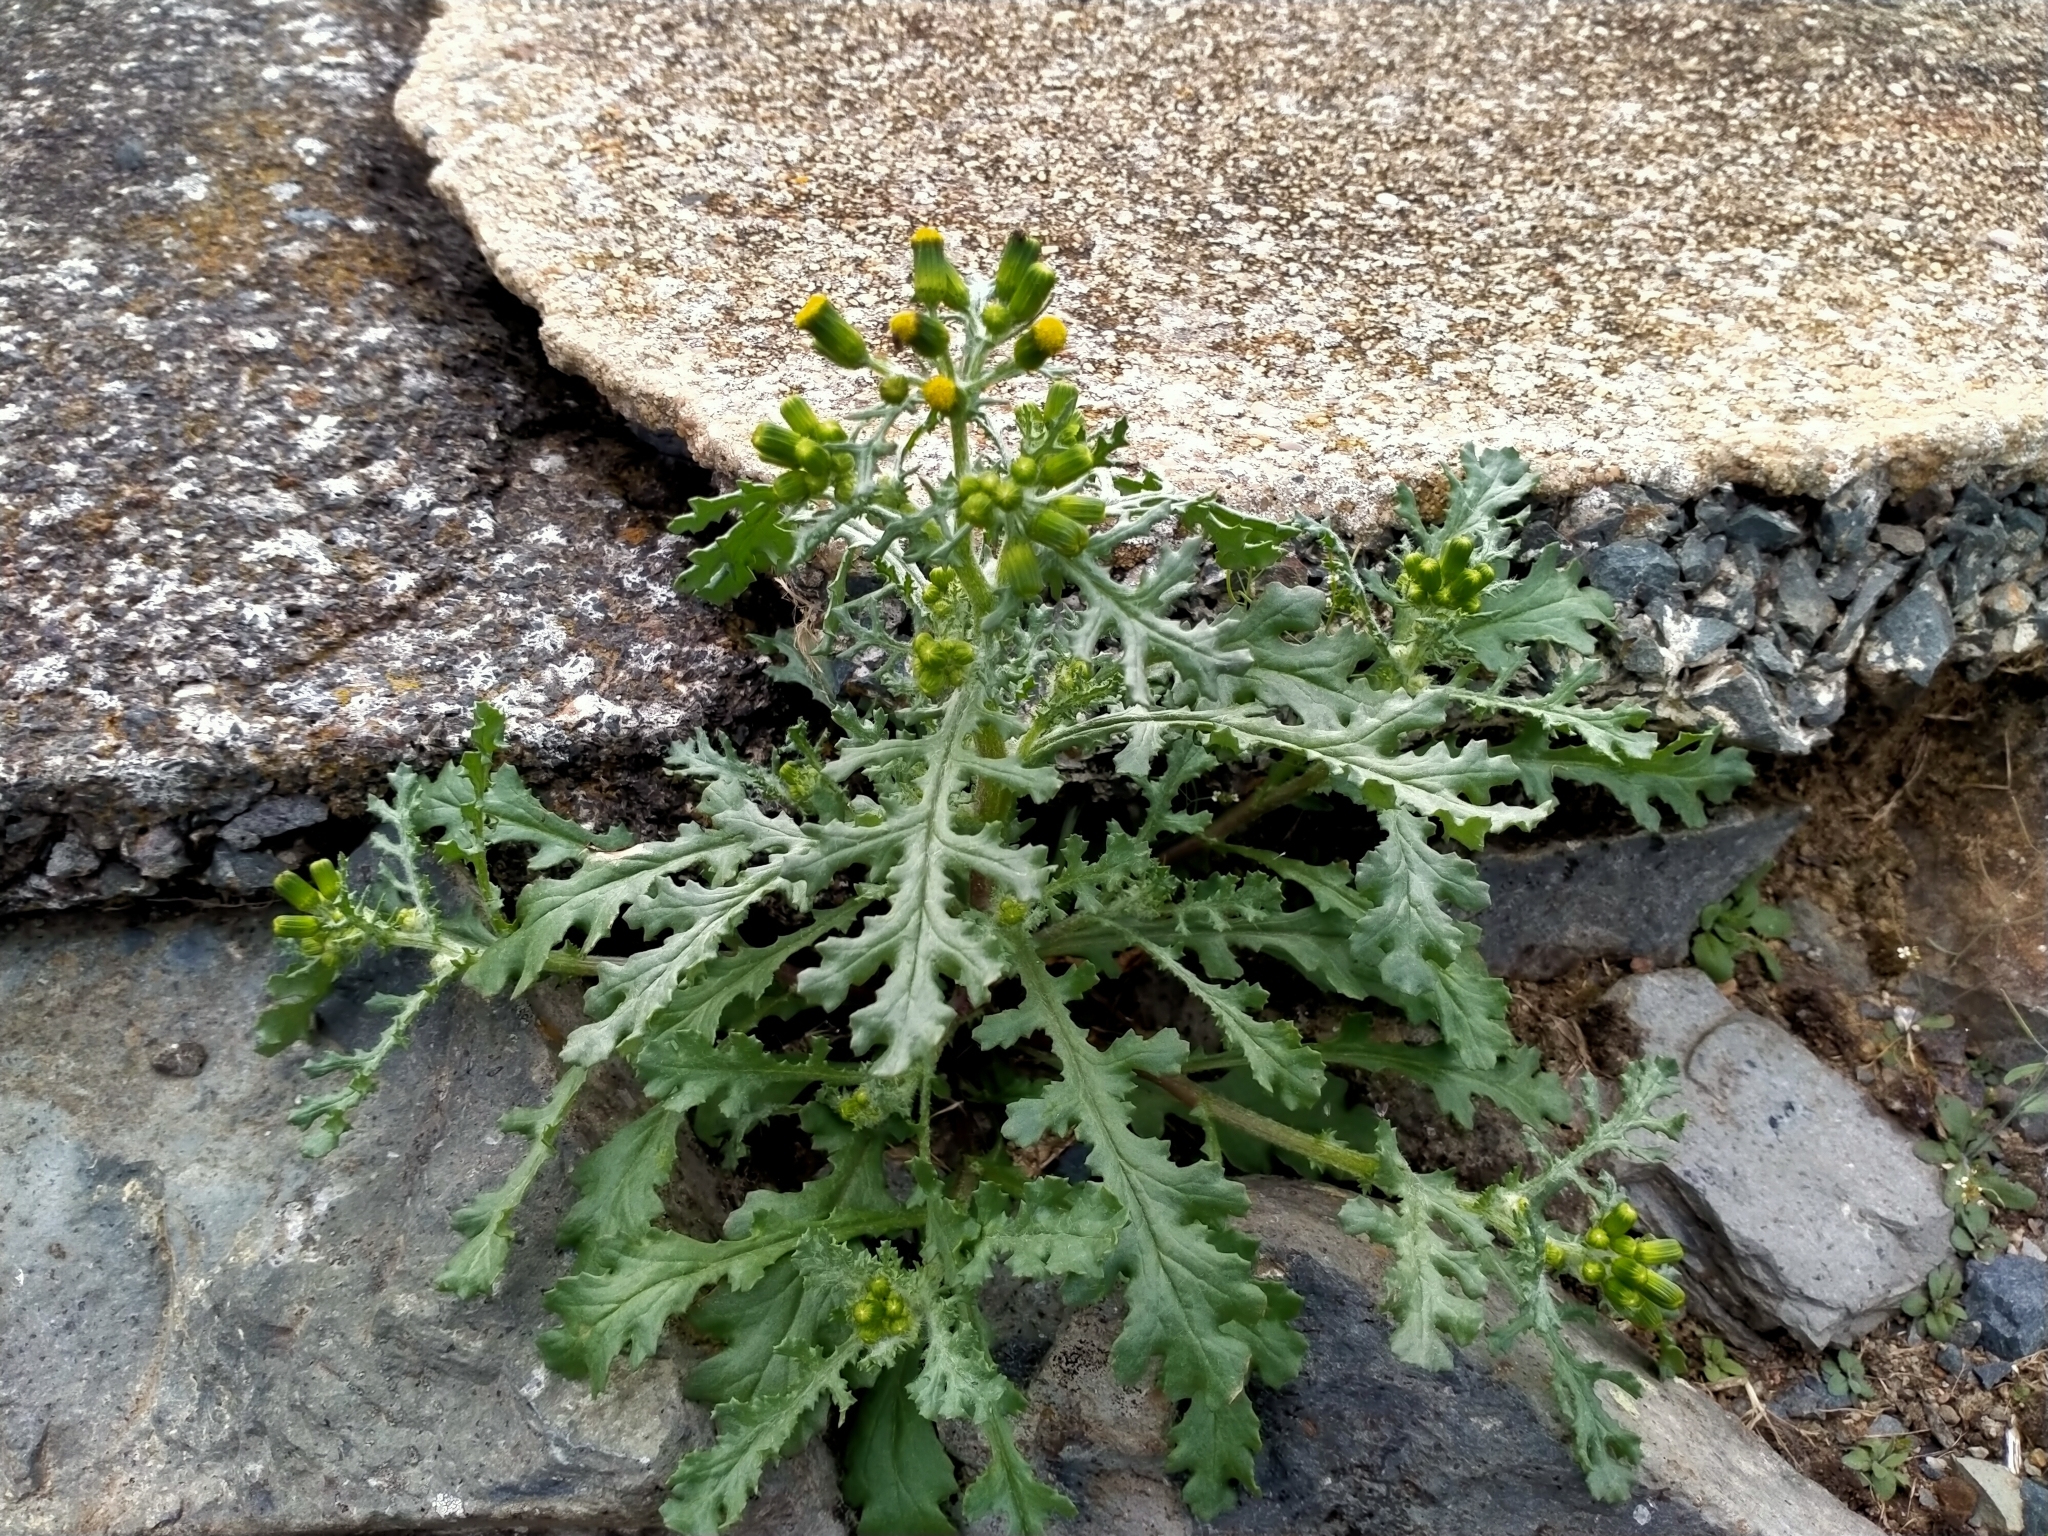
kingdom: Plantae
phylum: Tracheophyta
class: Magnoliopsida
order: Asterales
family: Asteraceae
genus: Senecio
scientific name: Senecio vulgaris
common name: Old-man-in-the-spring
